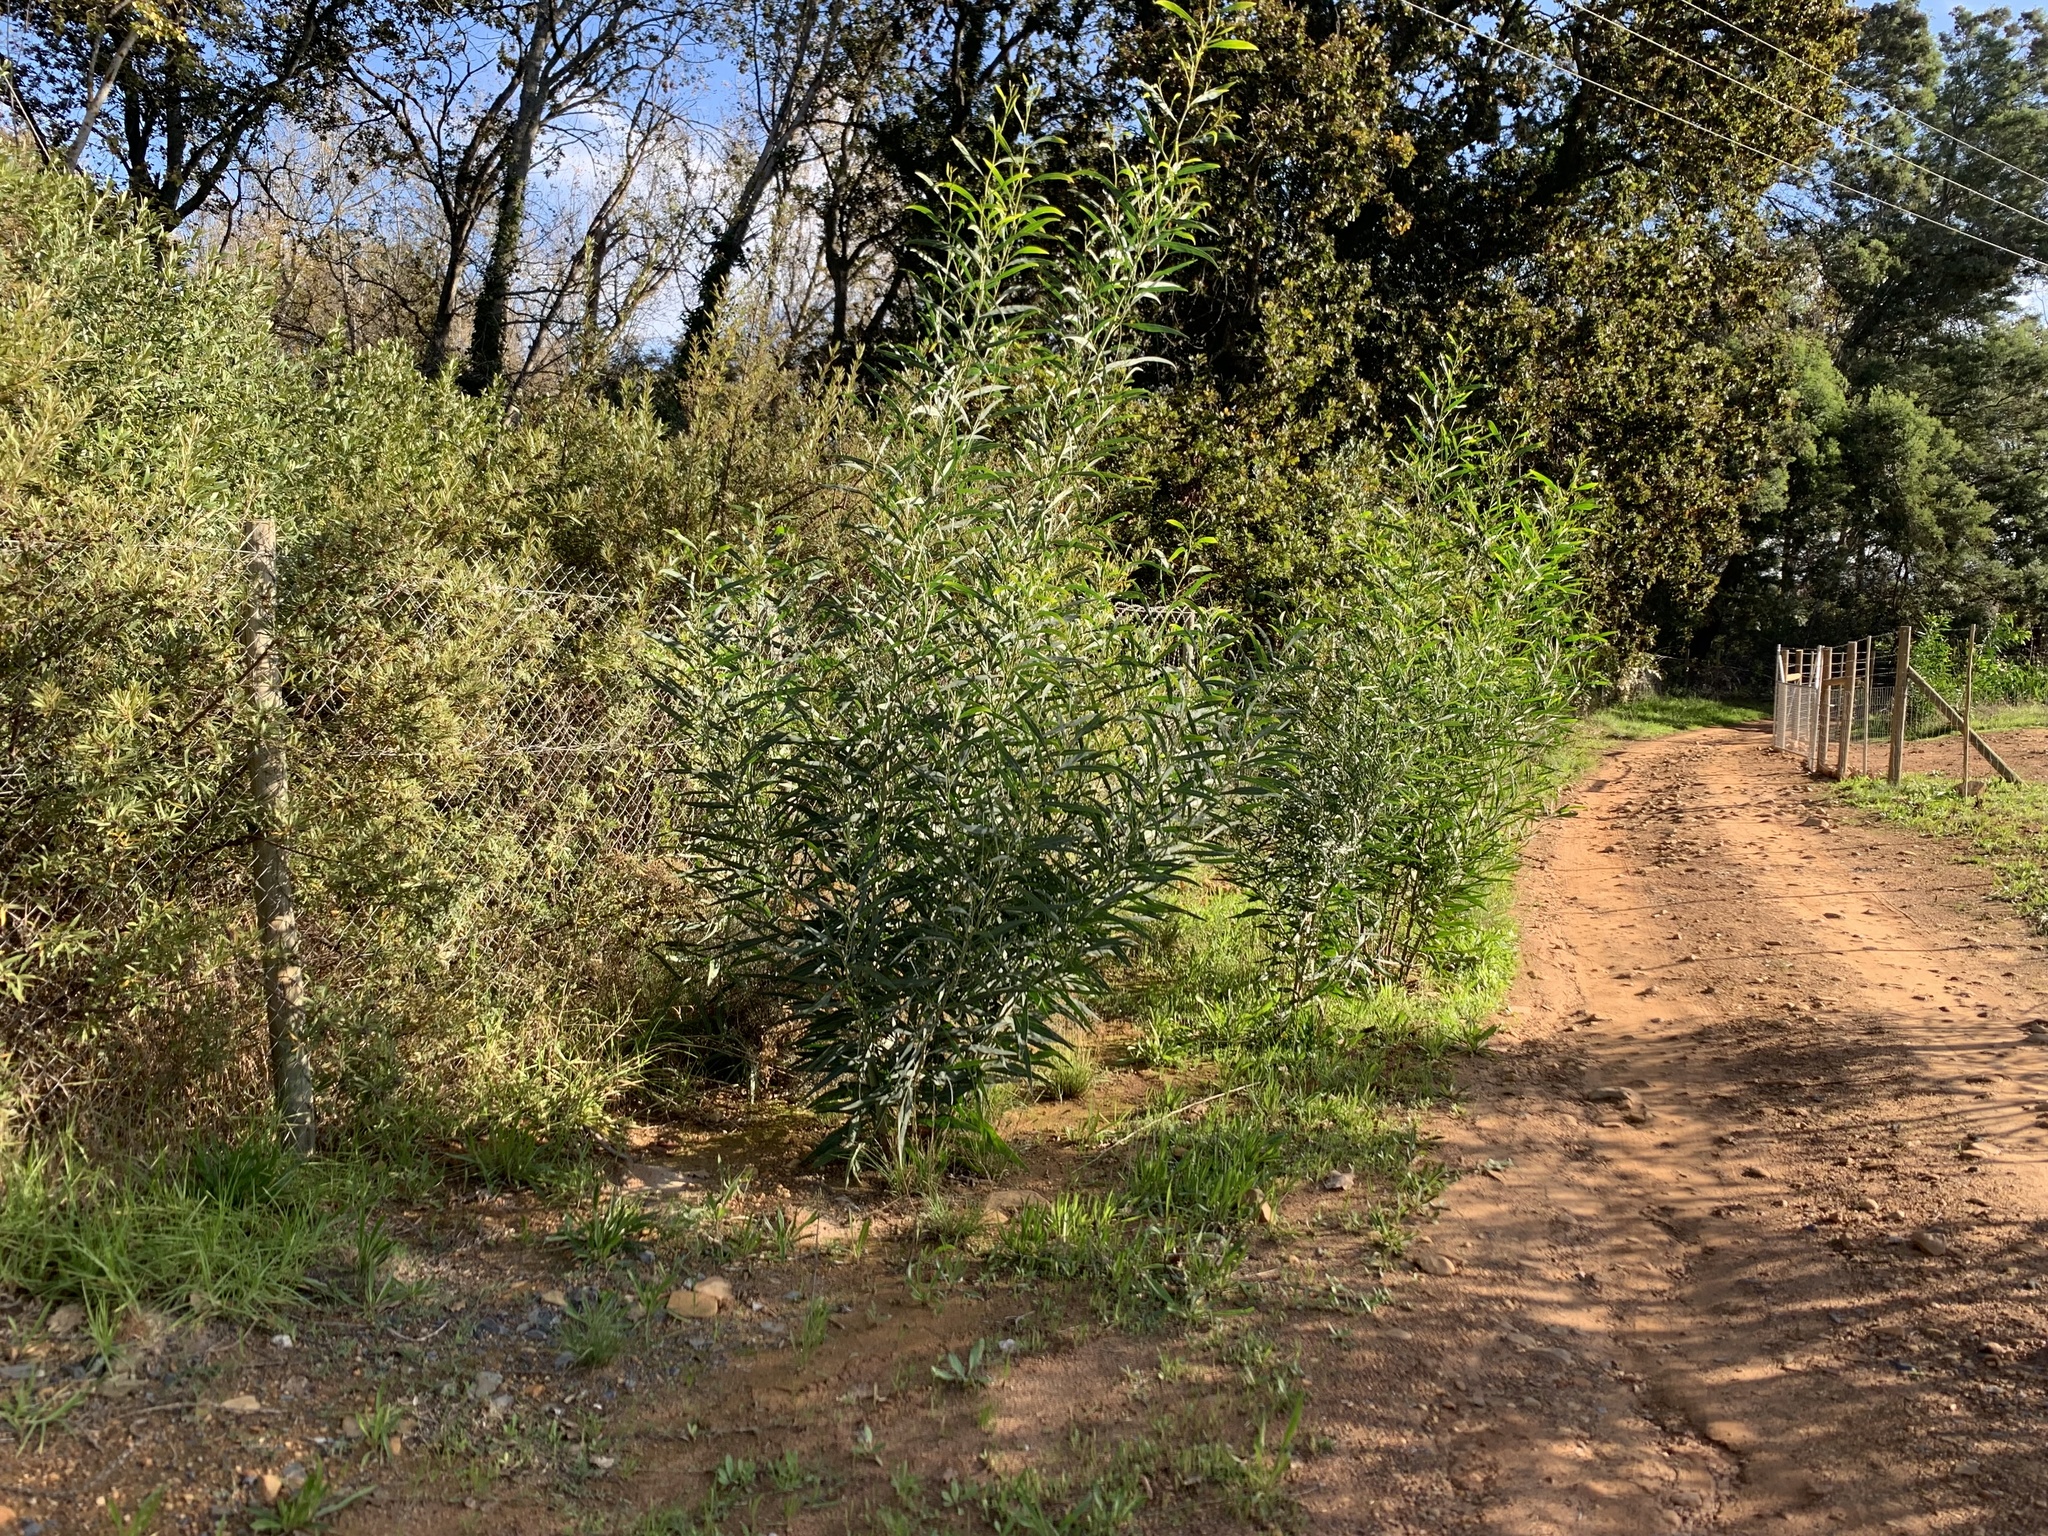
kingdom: Plantae
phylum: Tracheophyta
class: Magnoliopsida
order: Fabales
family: Fabaceae
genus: Acacia
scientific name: Acacia saligna
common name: Orange wattle
